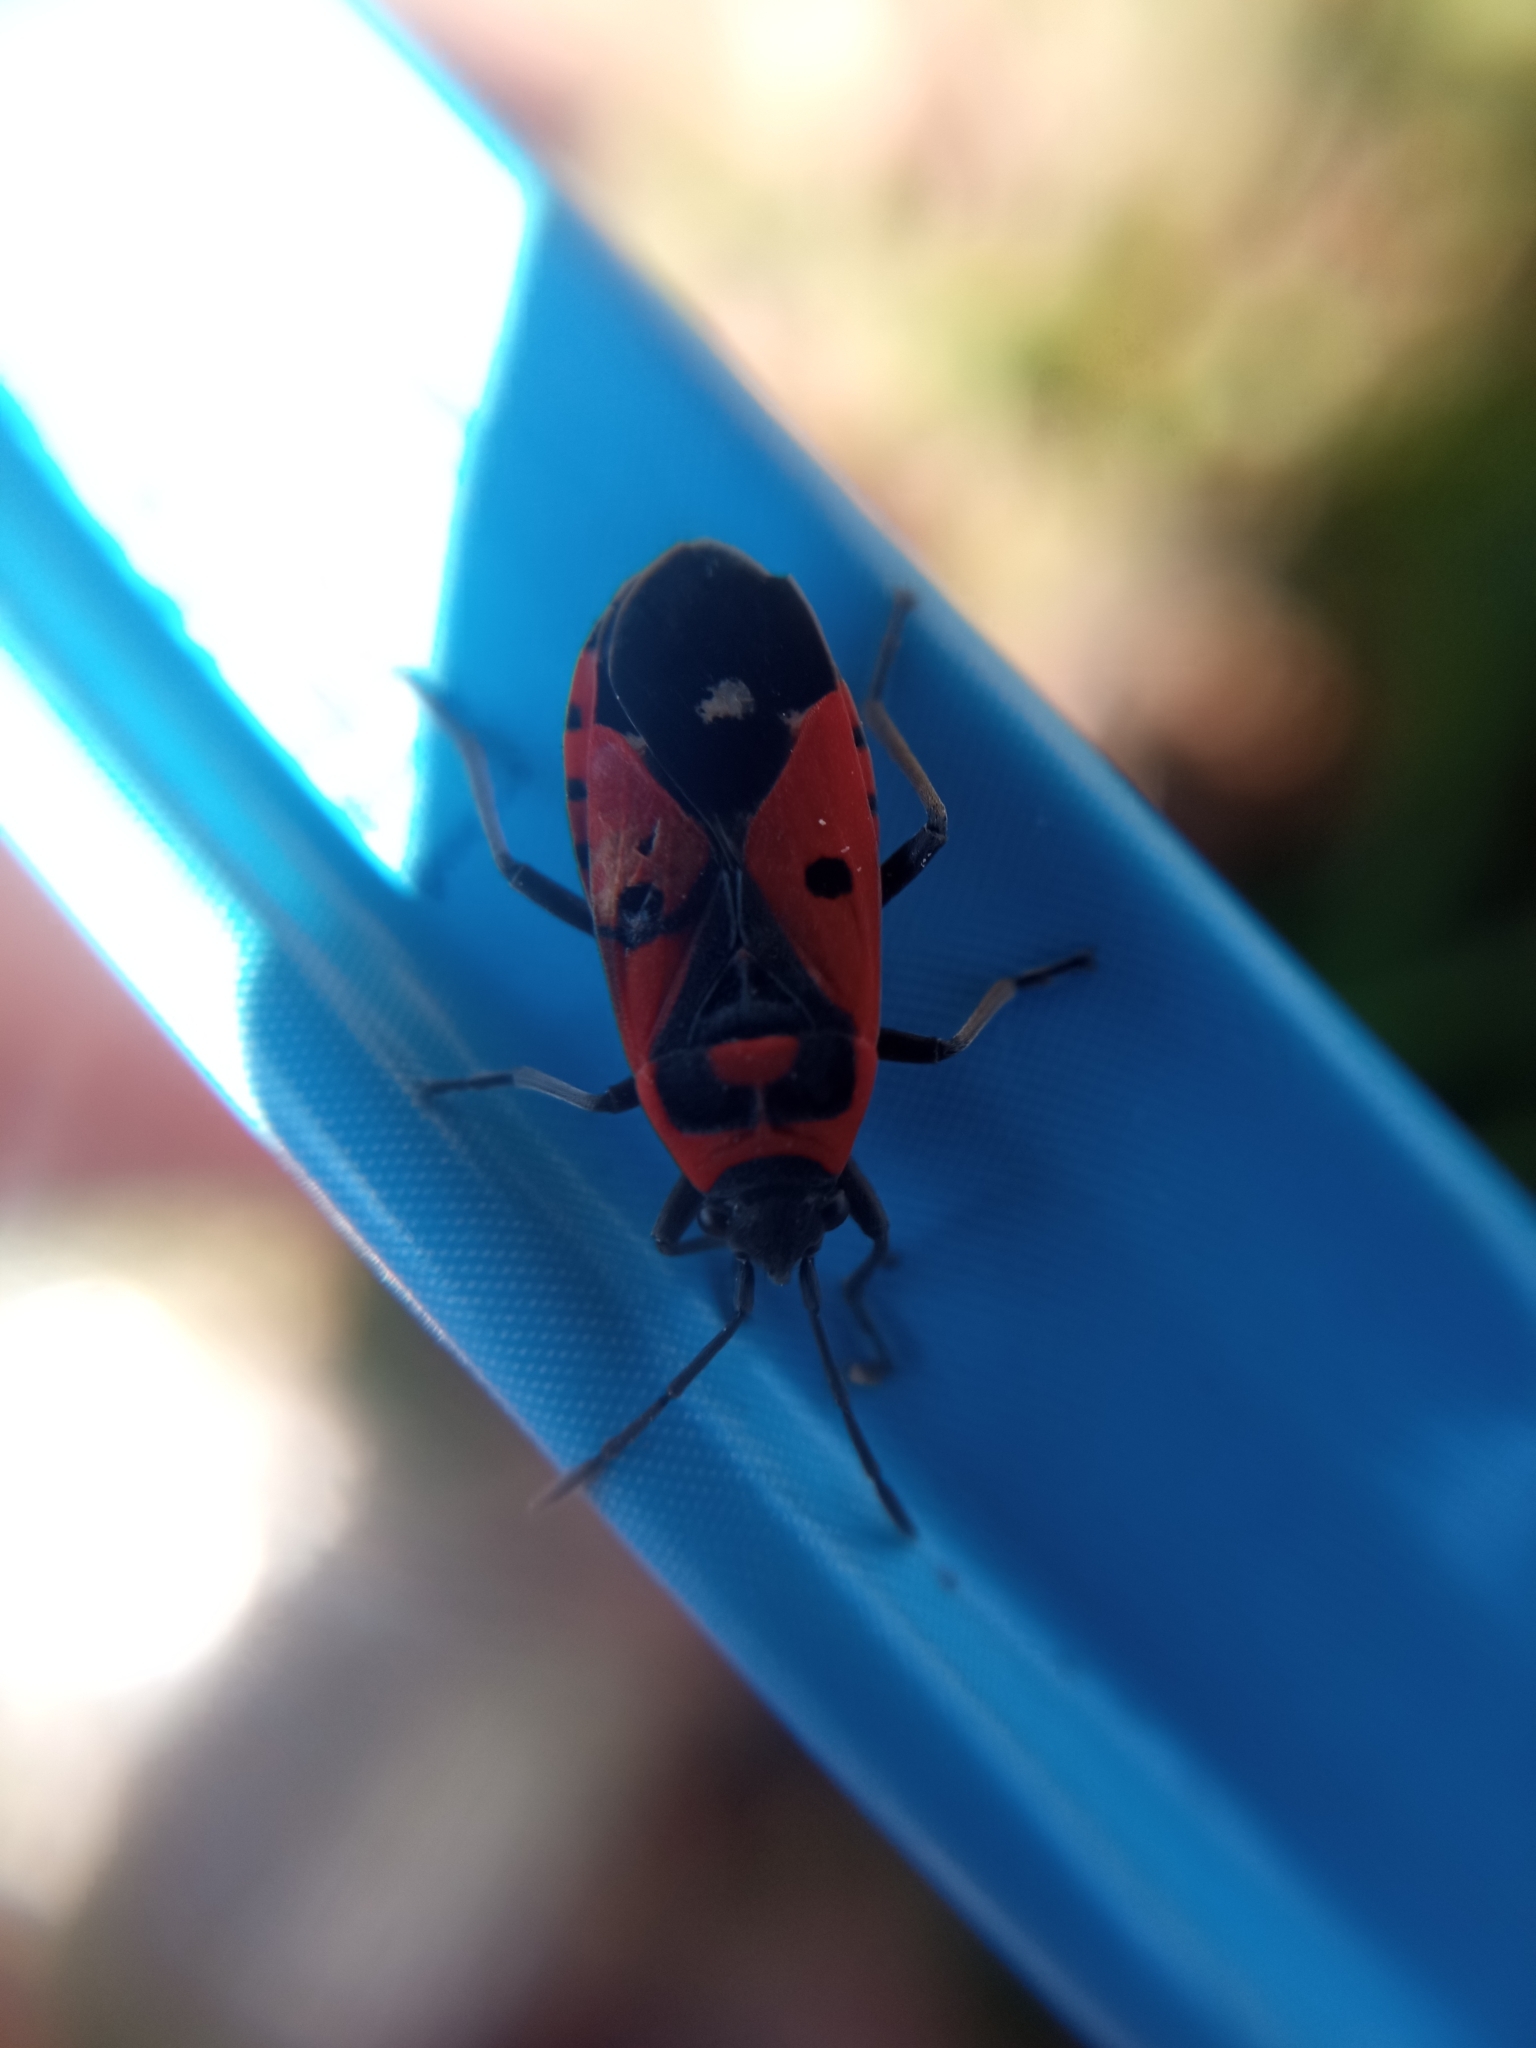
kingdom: Animalia
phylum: Arthropoda
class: Insecta
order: Hemiptera
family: Lygaeidae
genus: Melanocoryphus
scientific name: Melanocoryphus albomaculatus
